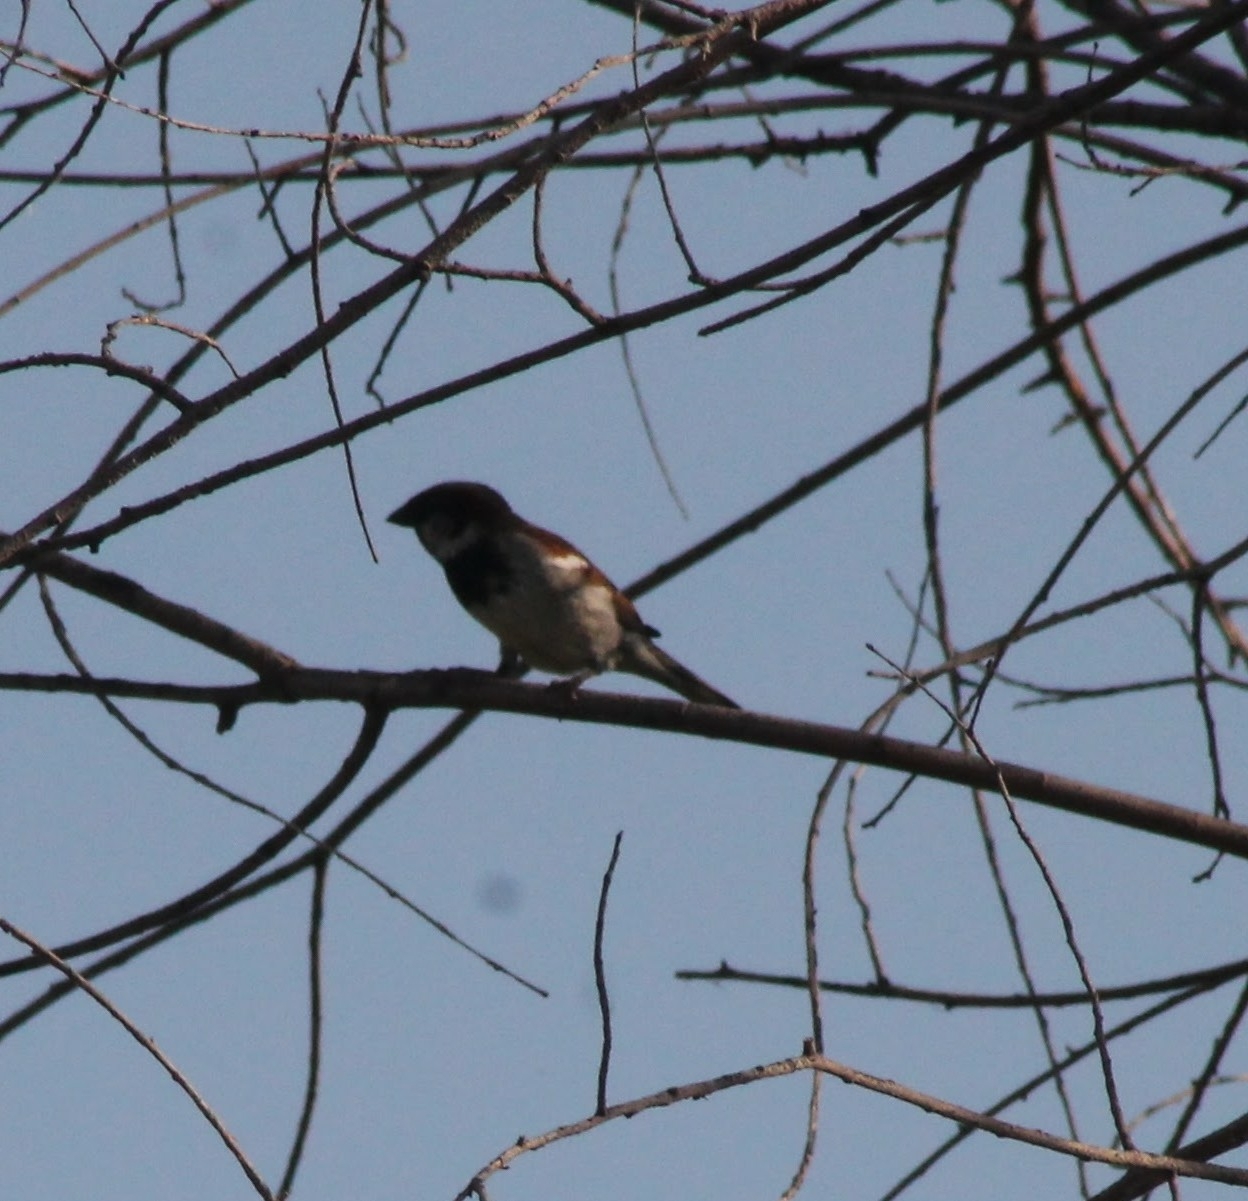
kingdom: Animalia
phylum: Chordata
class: Aves
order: Passeriformes
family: Passeridae
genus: Passer
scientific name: Passer domesticus
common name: House sparrow
